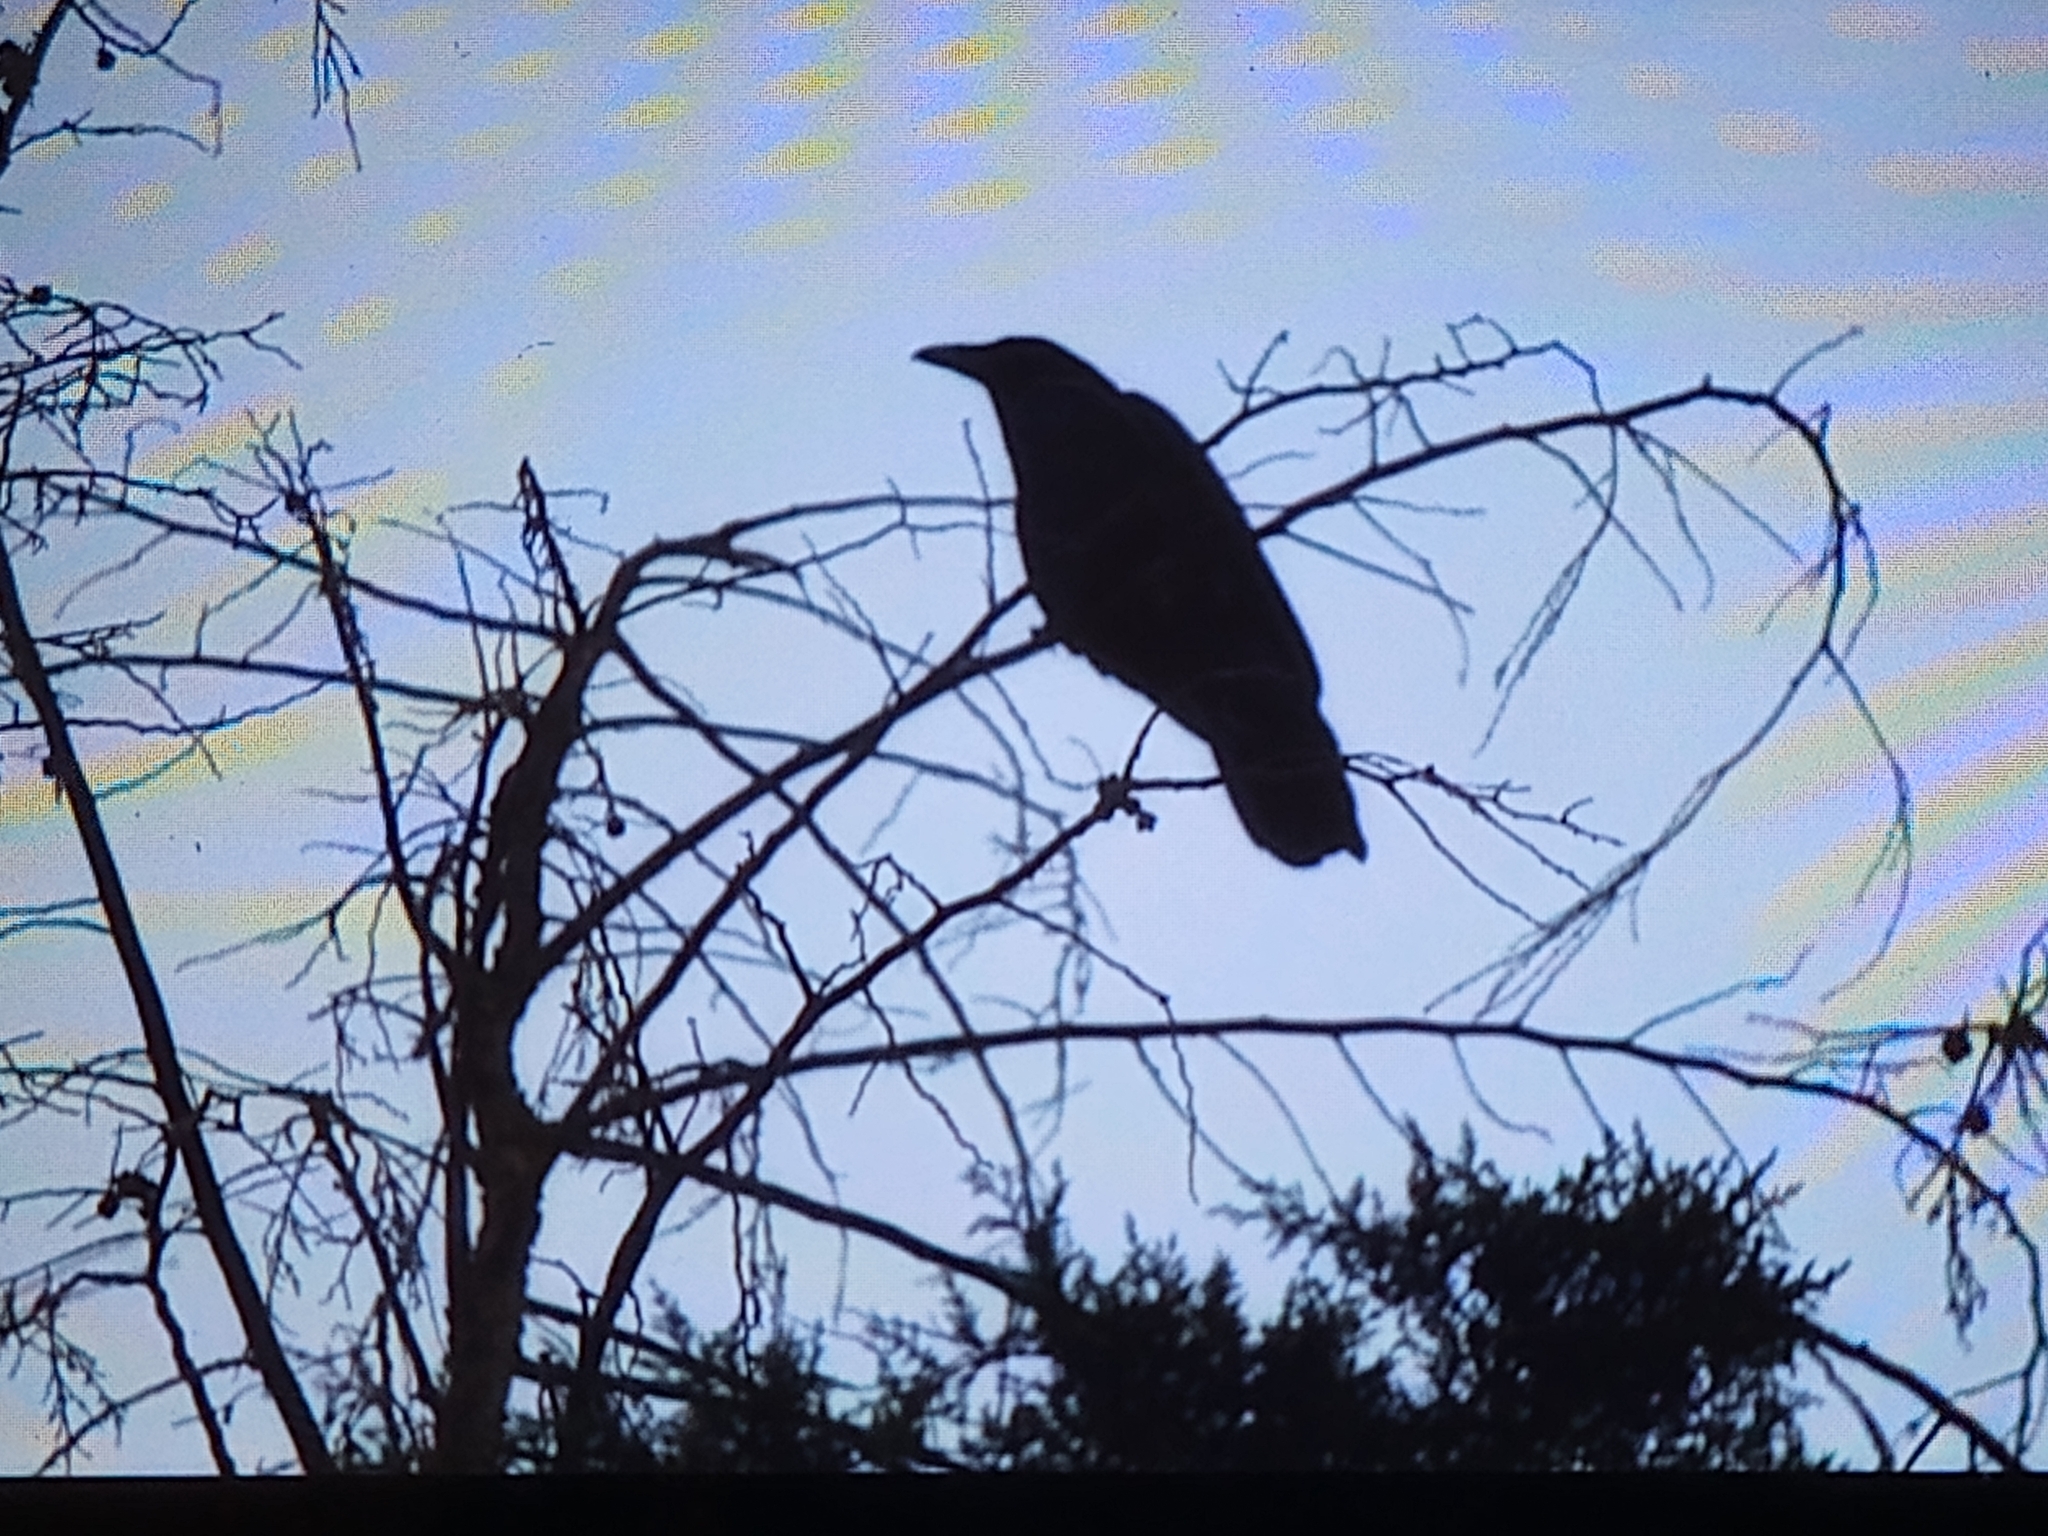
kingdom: Animalia
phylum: Chordata
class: Aves
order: Passeriformes
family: Corvidae
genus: Corvus
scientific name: Corvus corax
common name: Common raven
